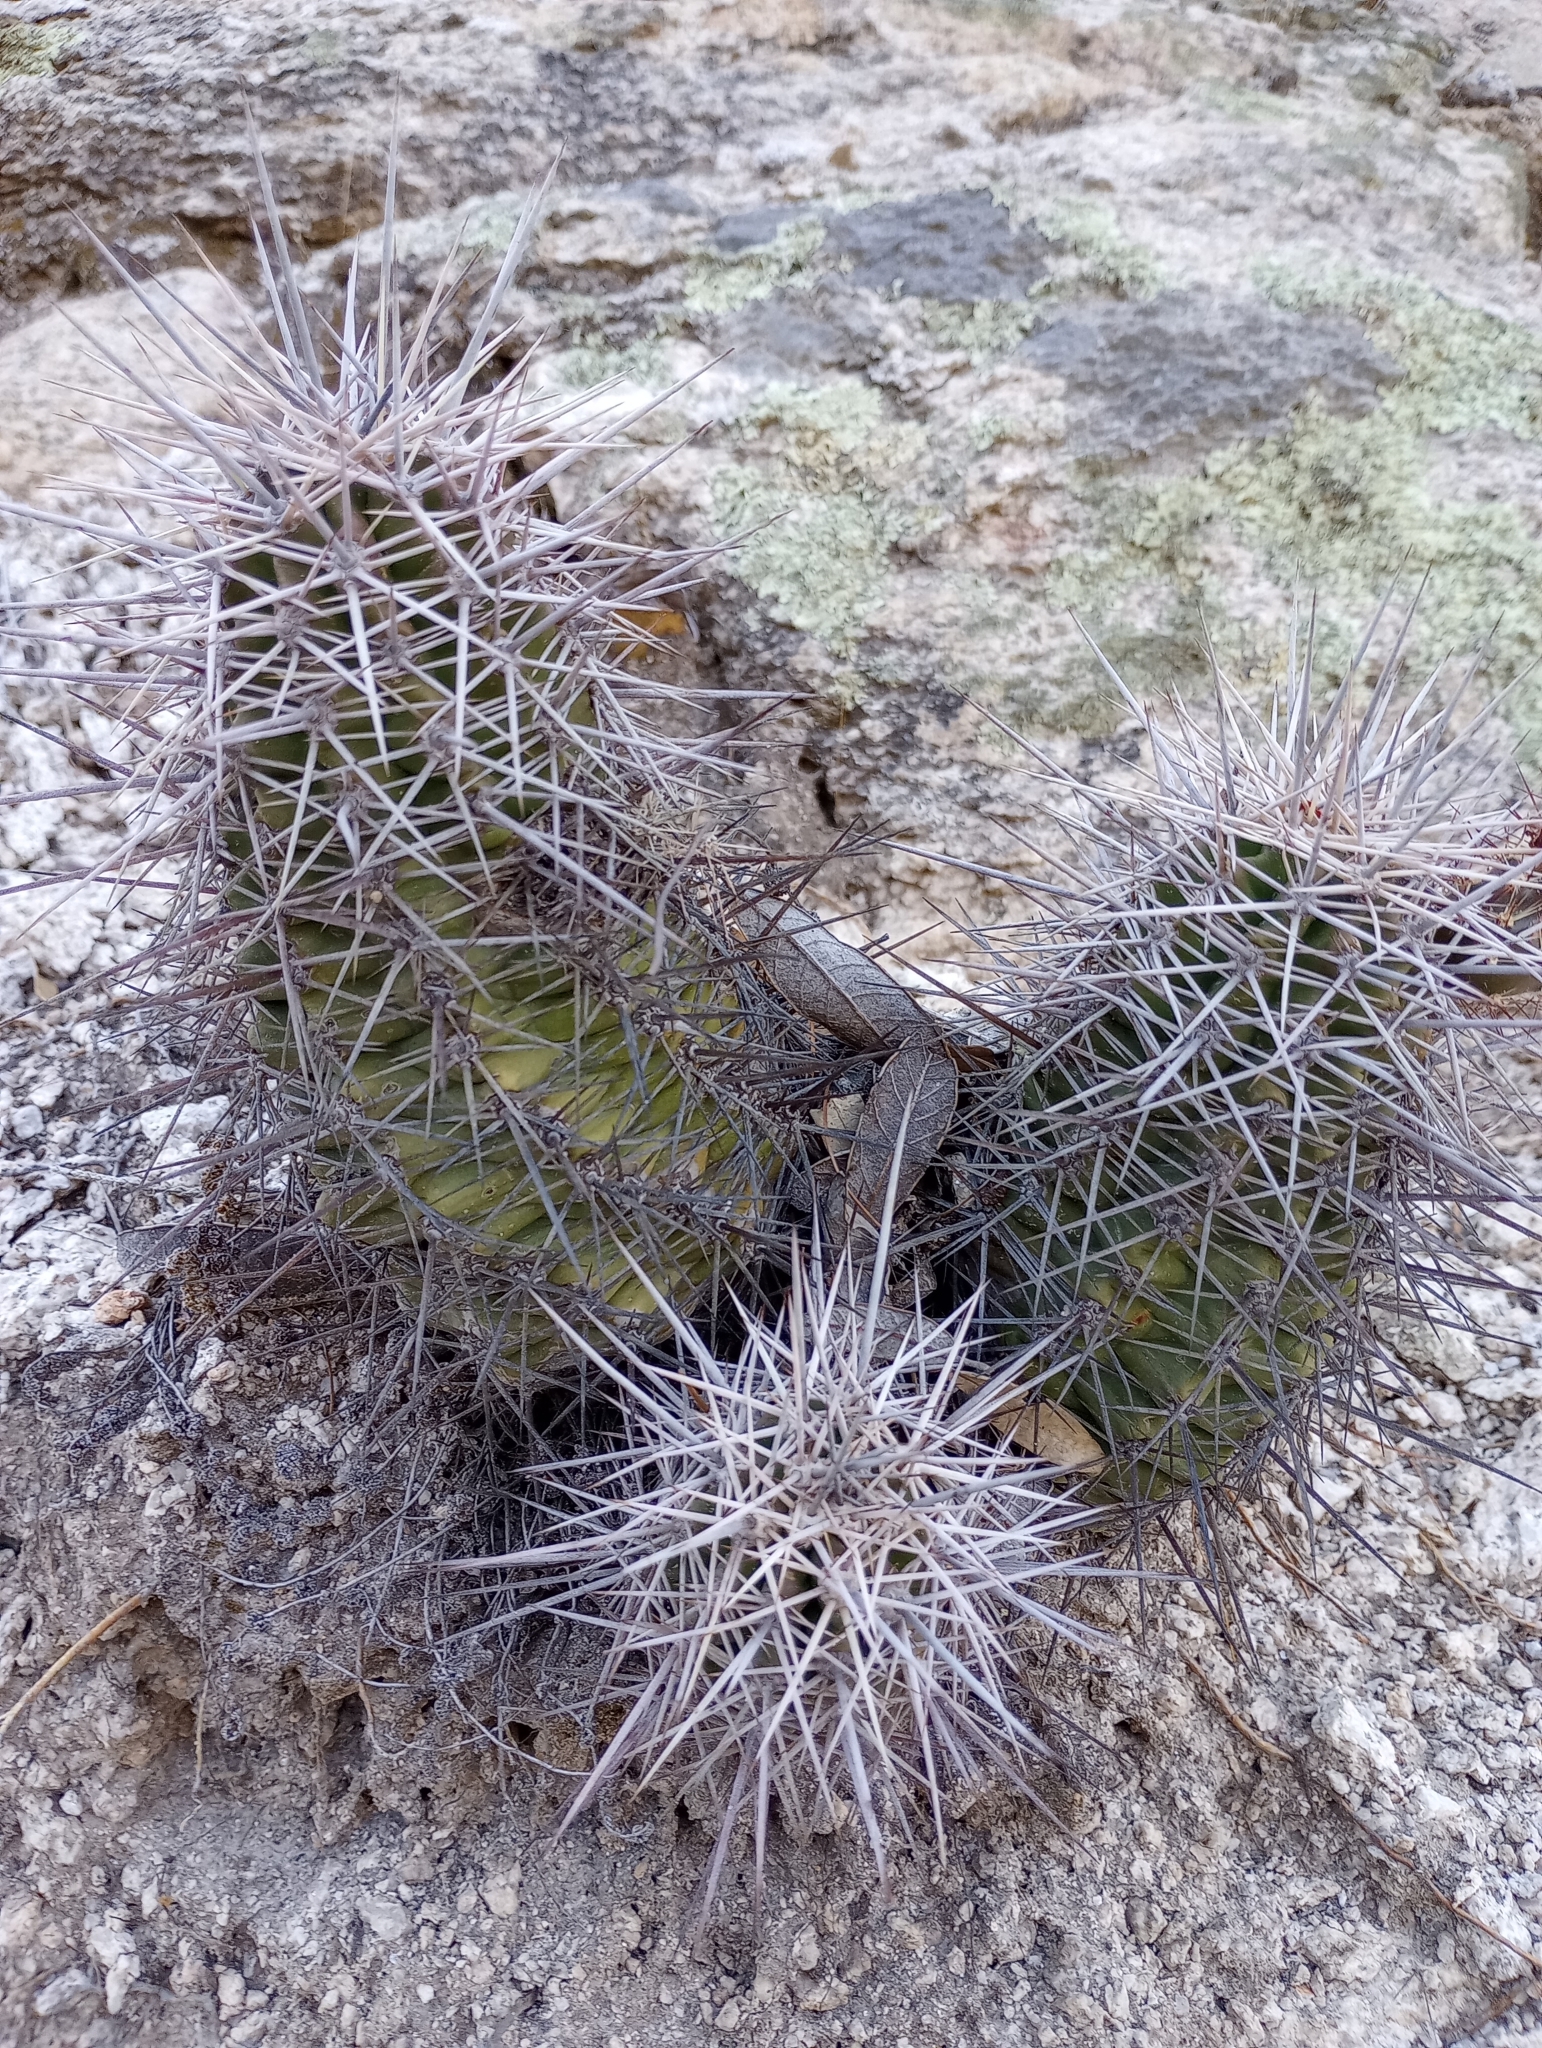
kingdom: Plantae
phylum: Tracheophyta
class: Magnoliopsida
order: Caryophyllales
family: Cactaceae
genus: Echinocereus
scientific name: Echinocereus coccineus
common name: Scarlet hedgehog cactus
